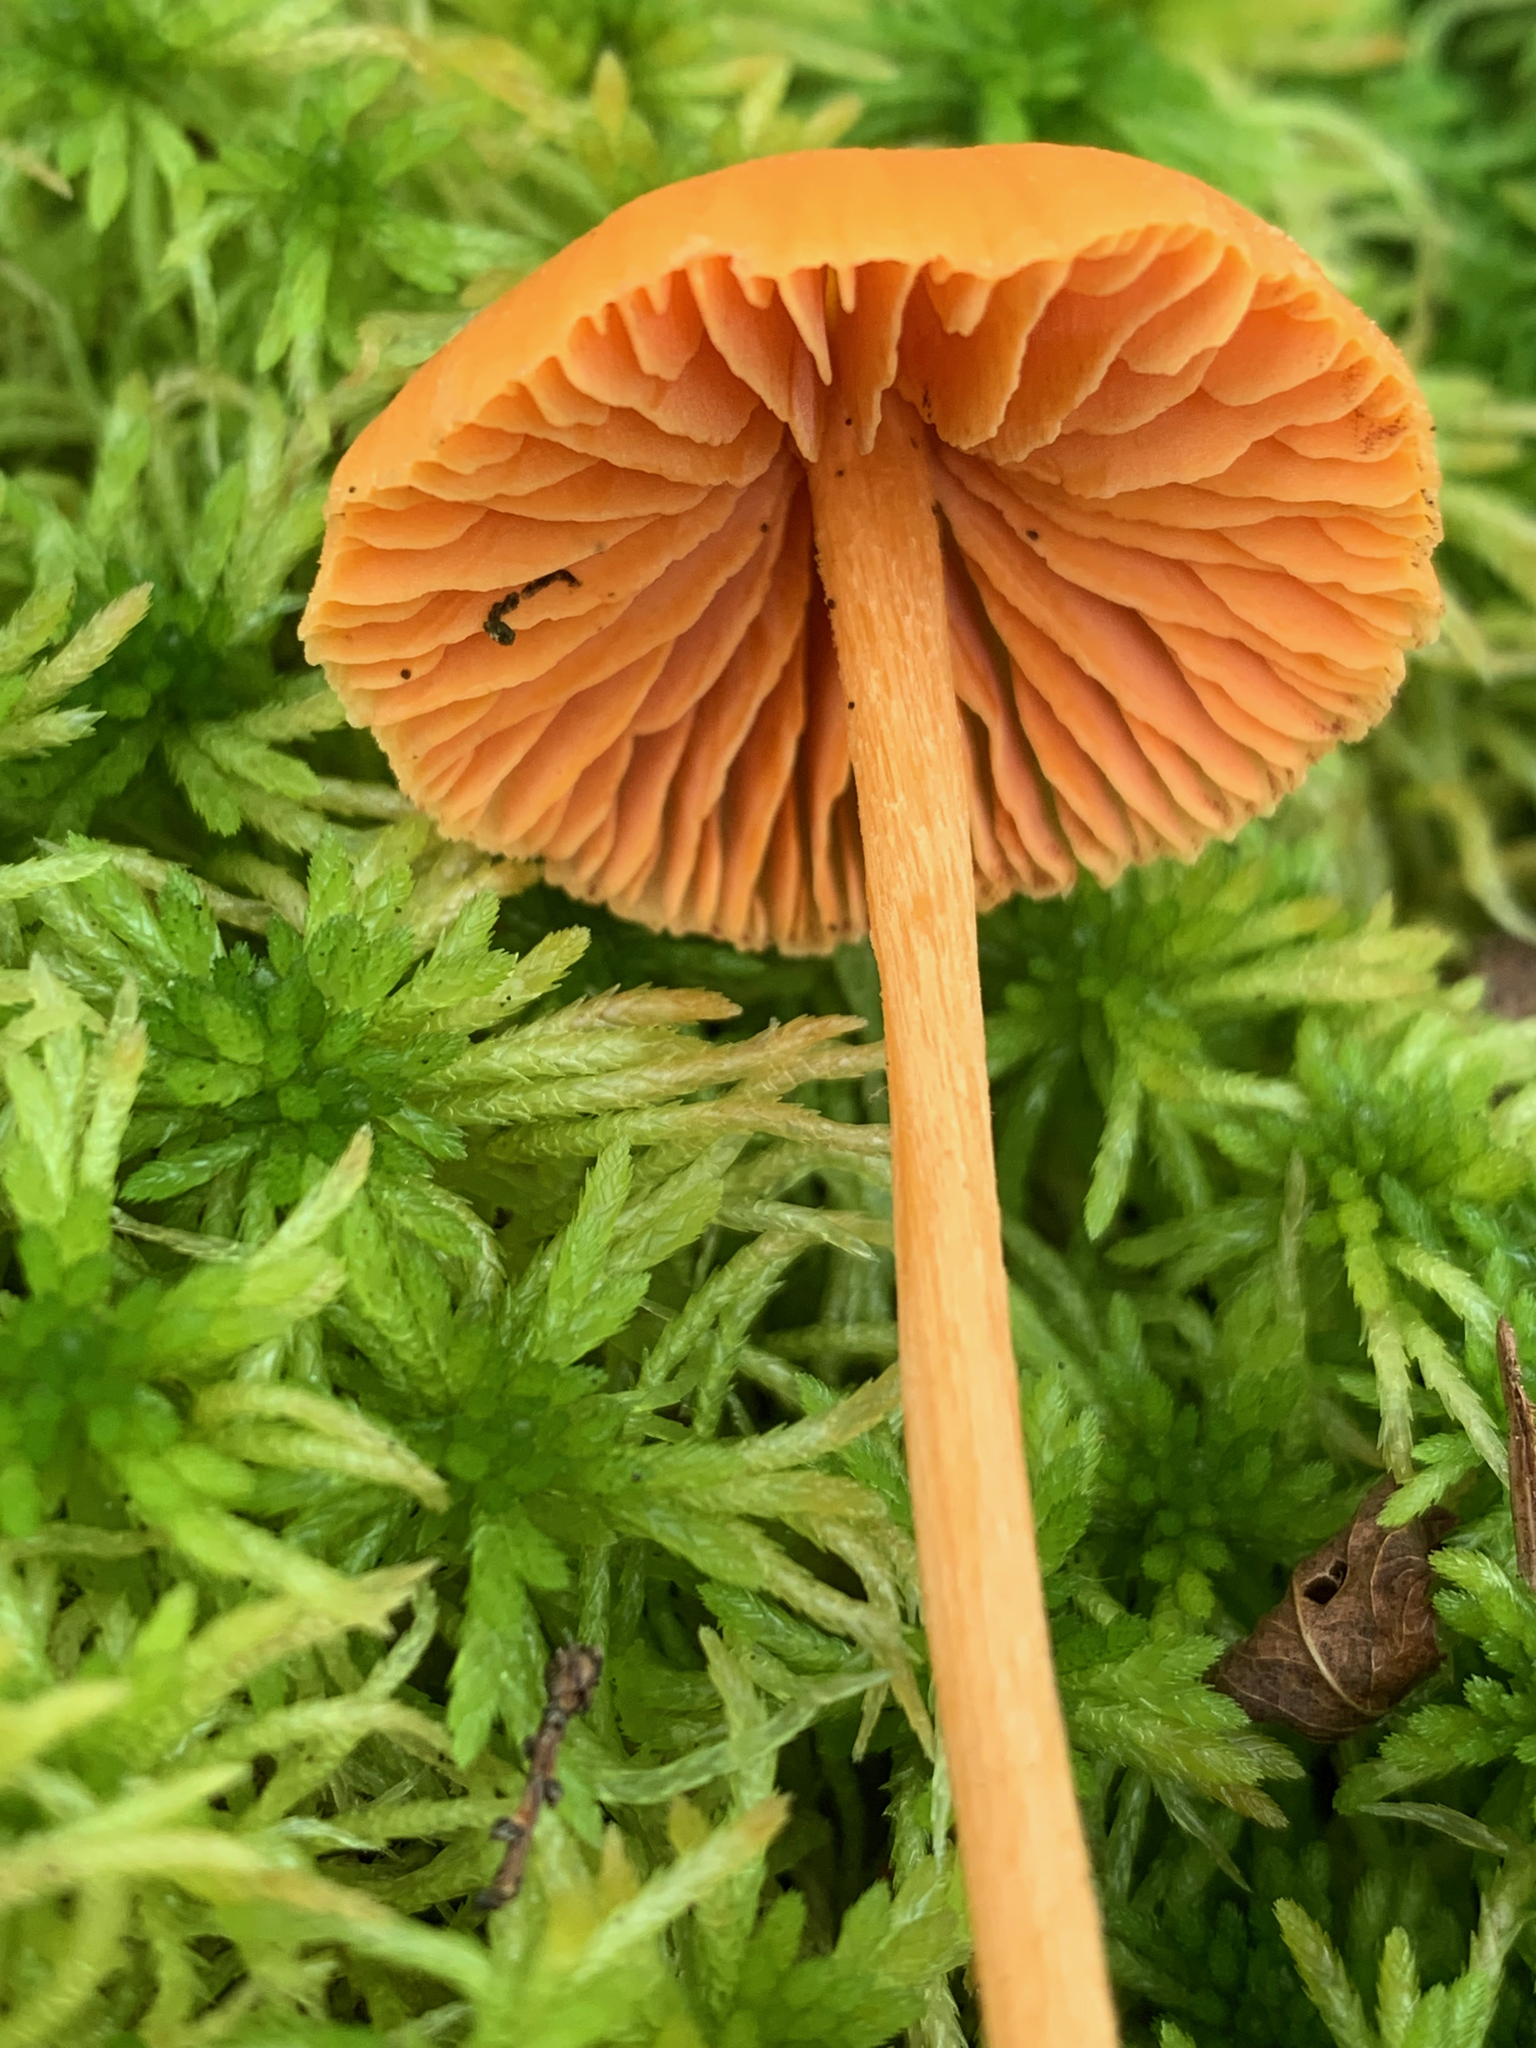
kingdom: Fungi
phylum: Basidiomycota
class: Agaricomycetes
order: Agaricales
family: Entolomataceae
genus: Entoloma
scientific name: Entoloma quadratum
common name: Salmon pinkgill
